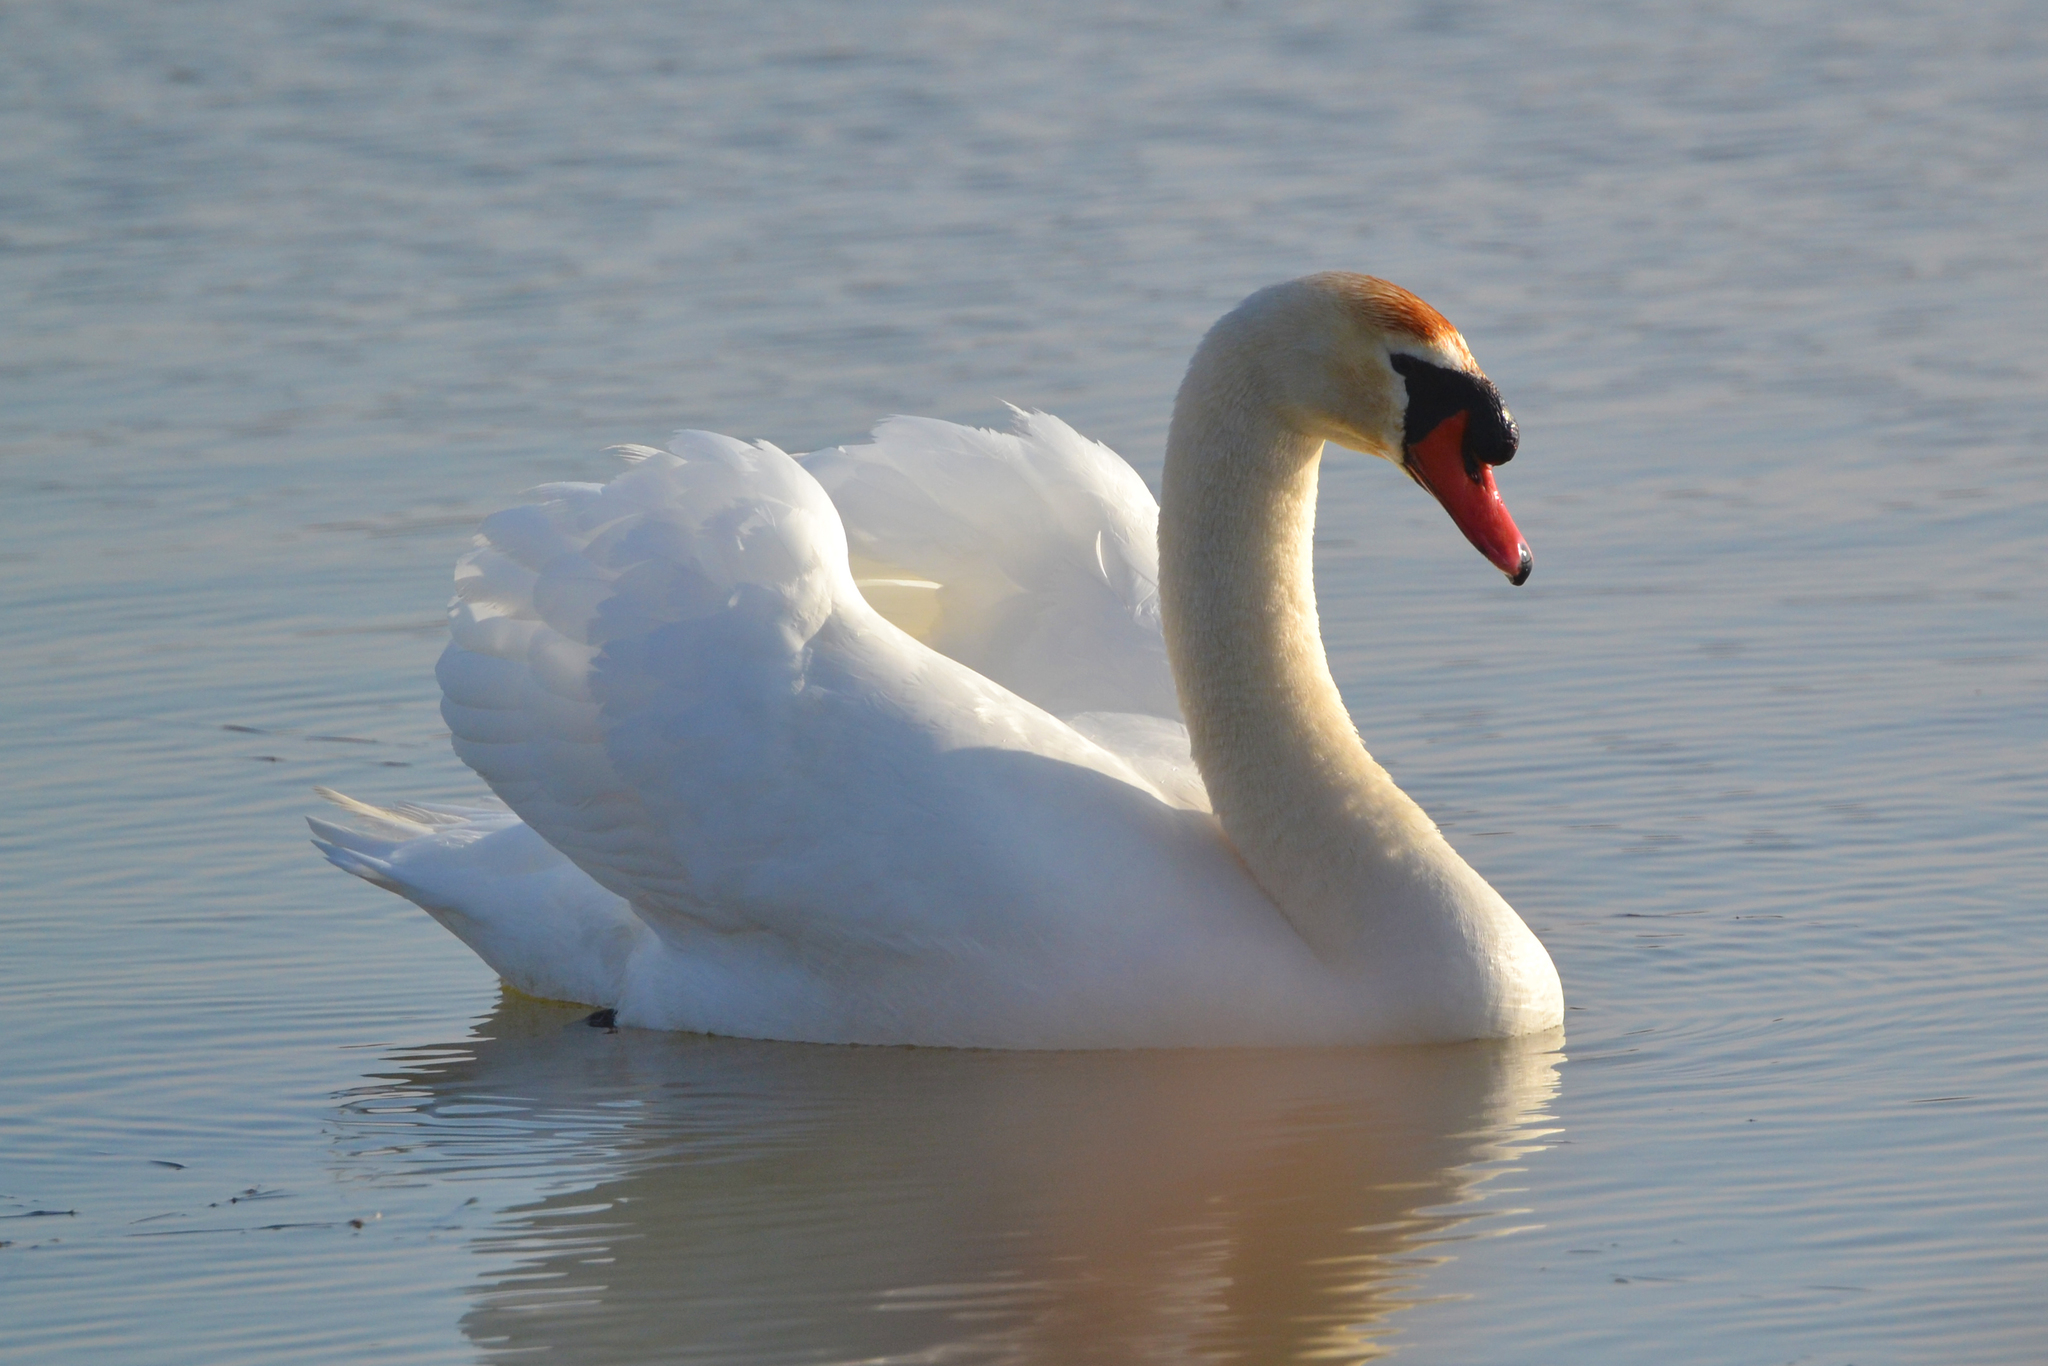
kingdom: Animalia
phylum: Chordata
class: Aves
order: Anseriformes
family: Anatidae
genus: Cygnus
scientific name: Cygnus olor
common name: Mute swan
